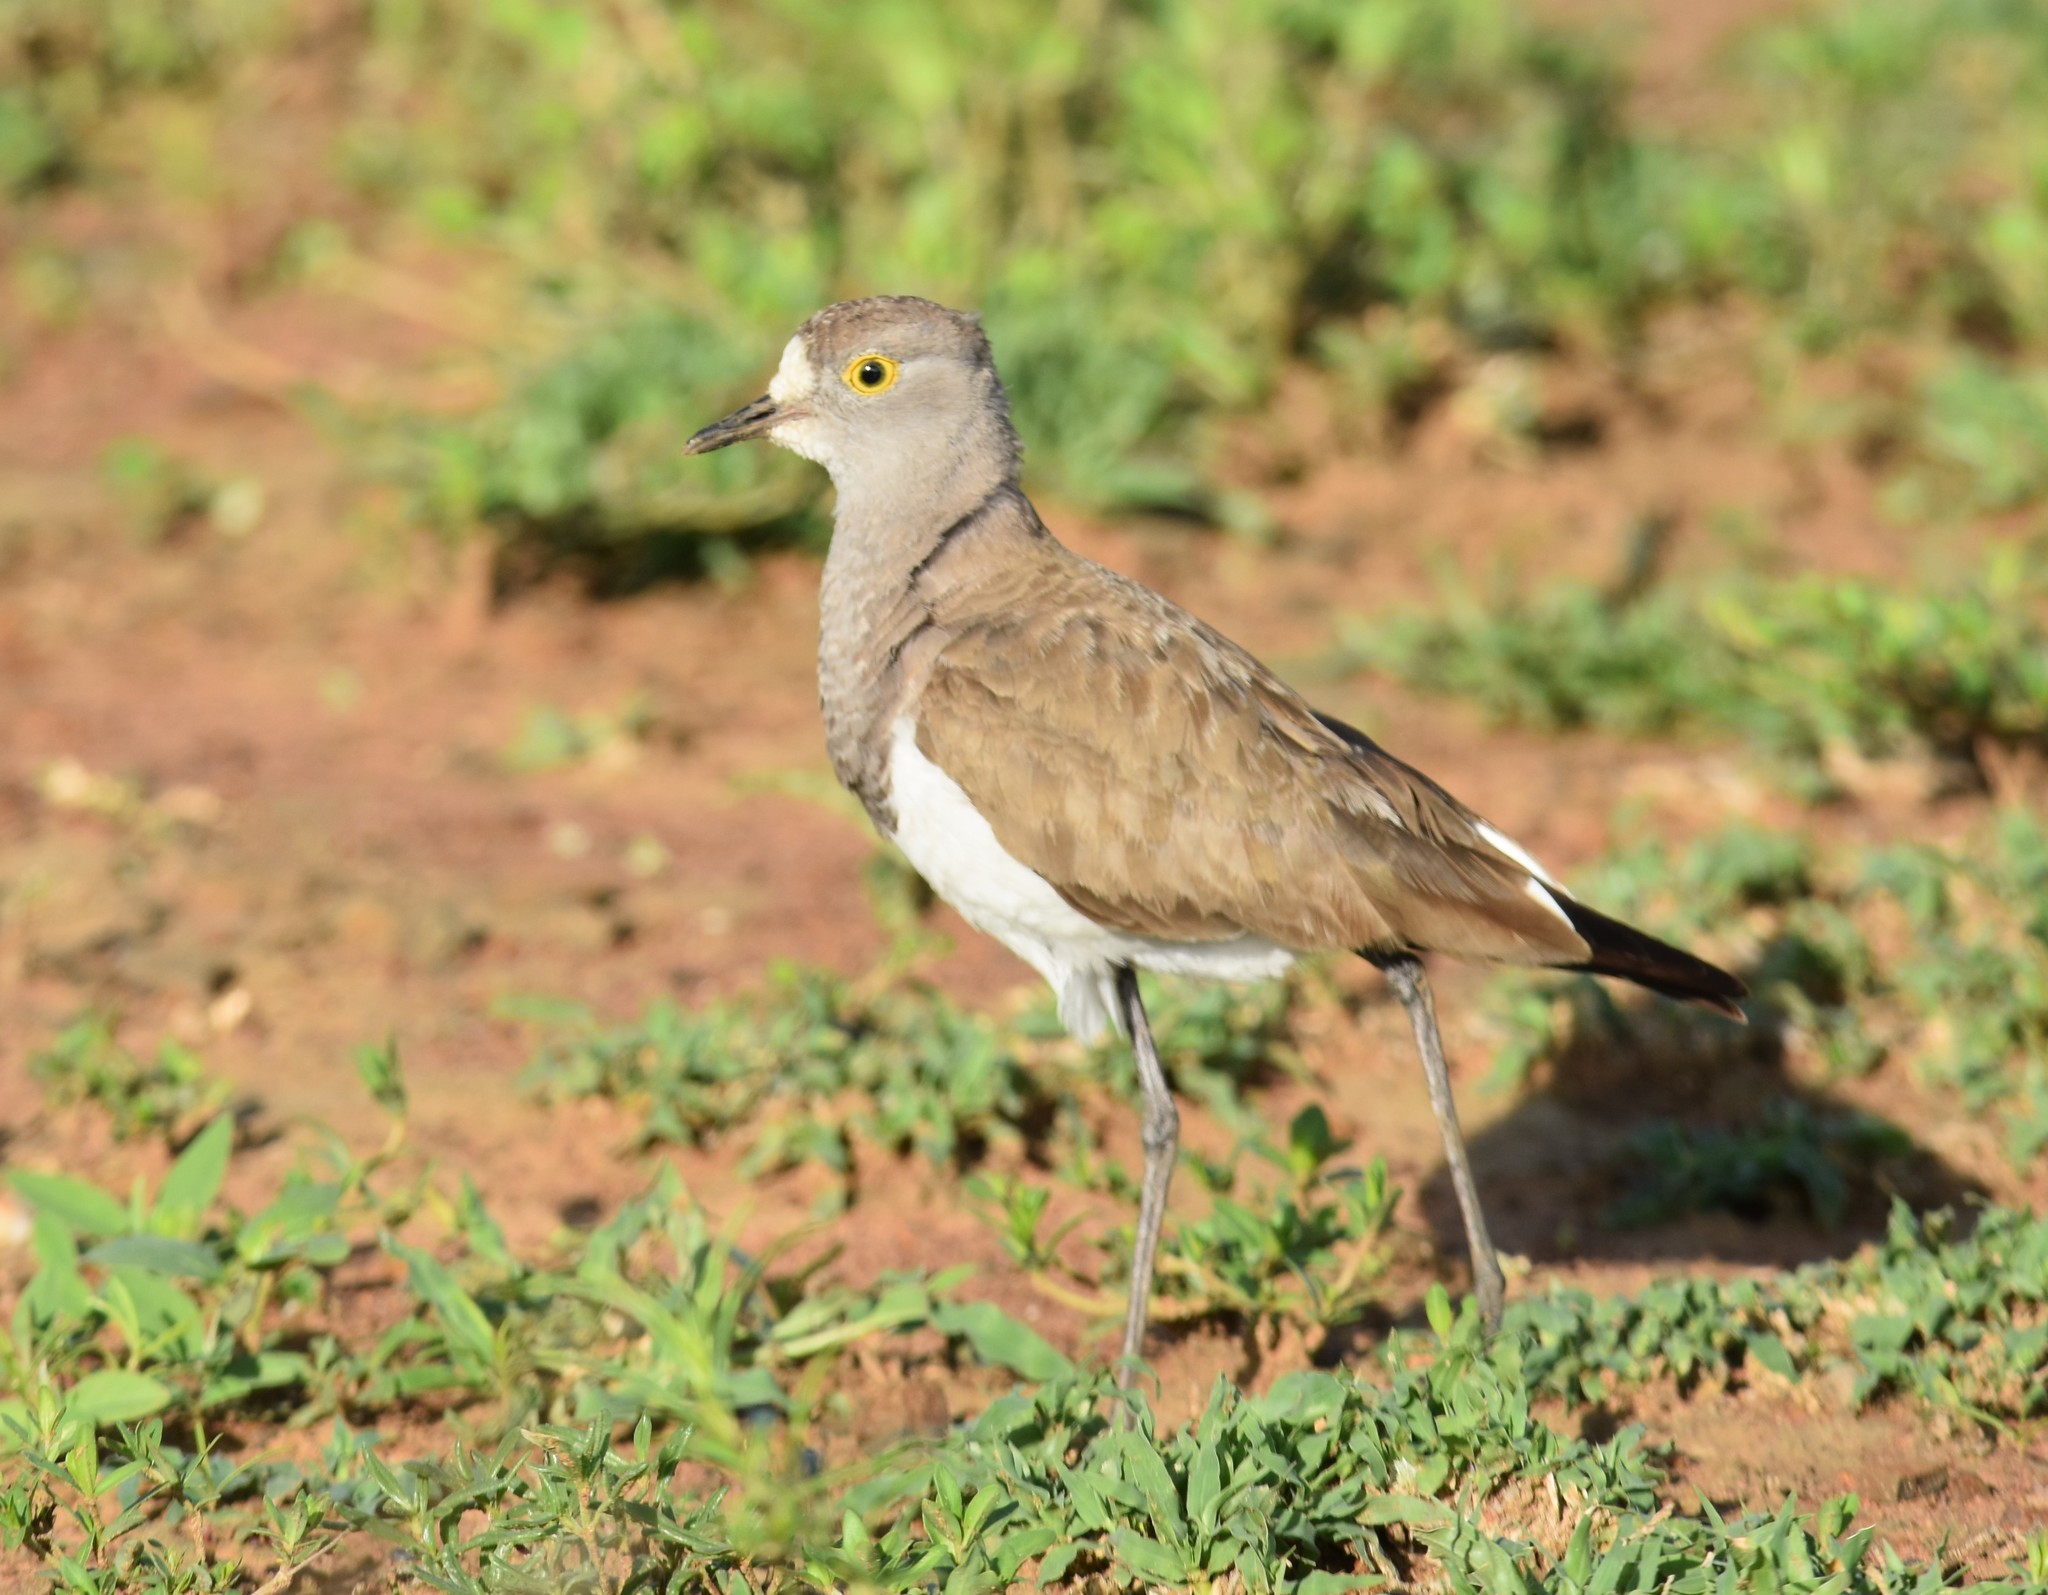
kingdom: Animalia
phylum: Chordata
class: Aves
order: Charadriiformes
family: Charadriidae
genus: Vanellus
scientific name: Vanellus lugubris
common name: Senegal lapwing
